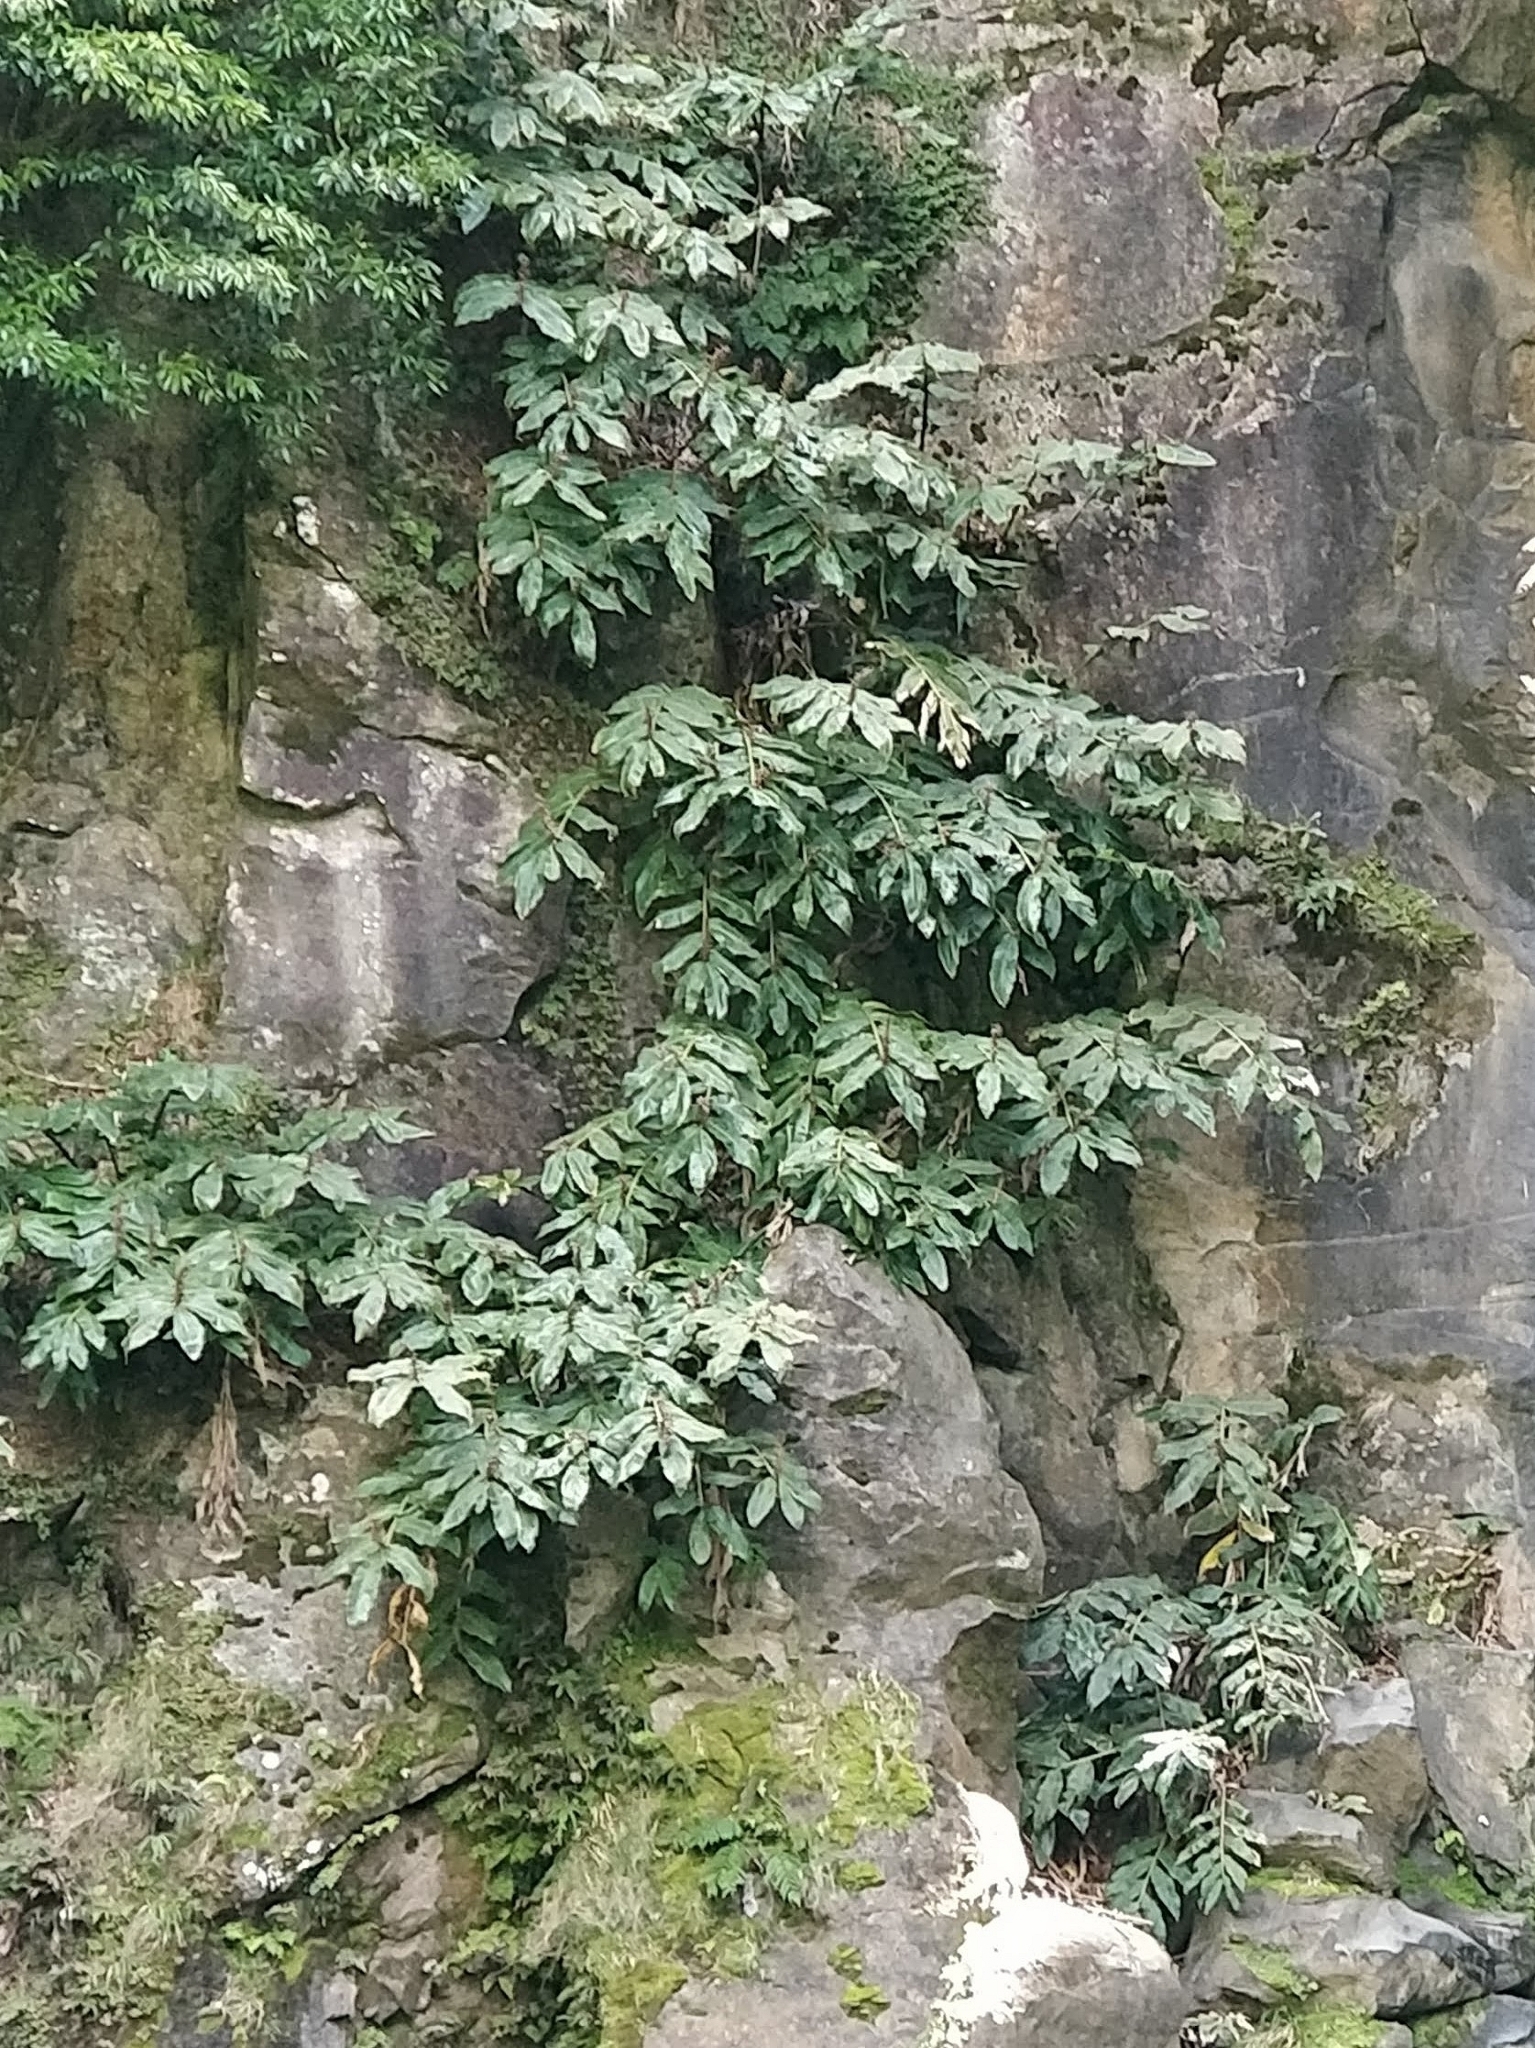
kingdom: Plantae
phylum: Tracheophyta
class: Liliopsida
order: Zingiberales
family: Zingiberaceae
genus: Hedychium
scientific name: Hedychium gardnerianum
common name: Himalayan ginger
